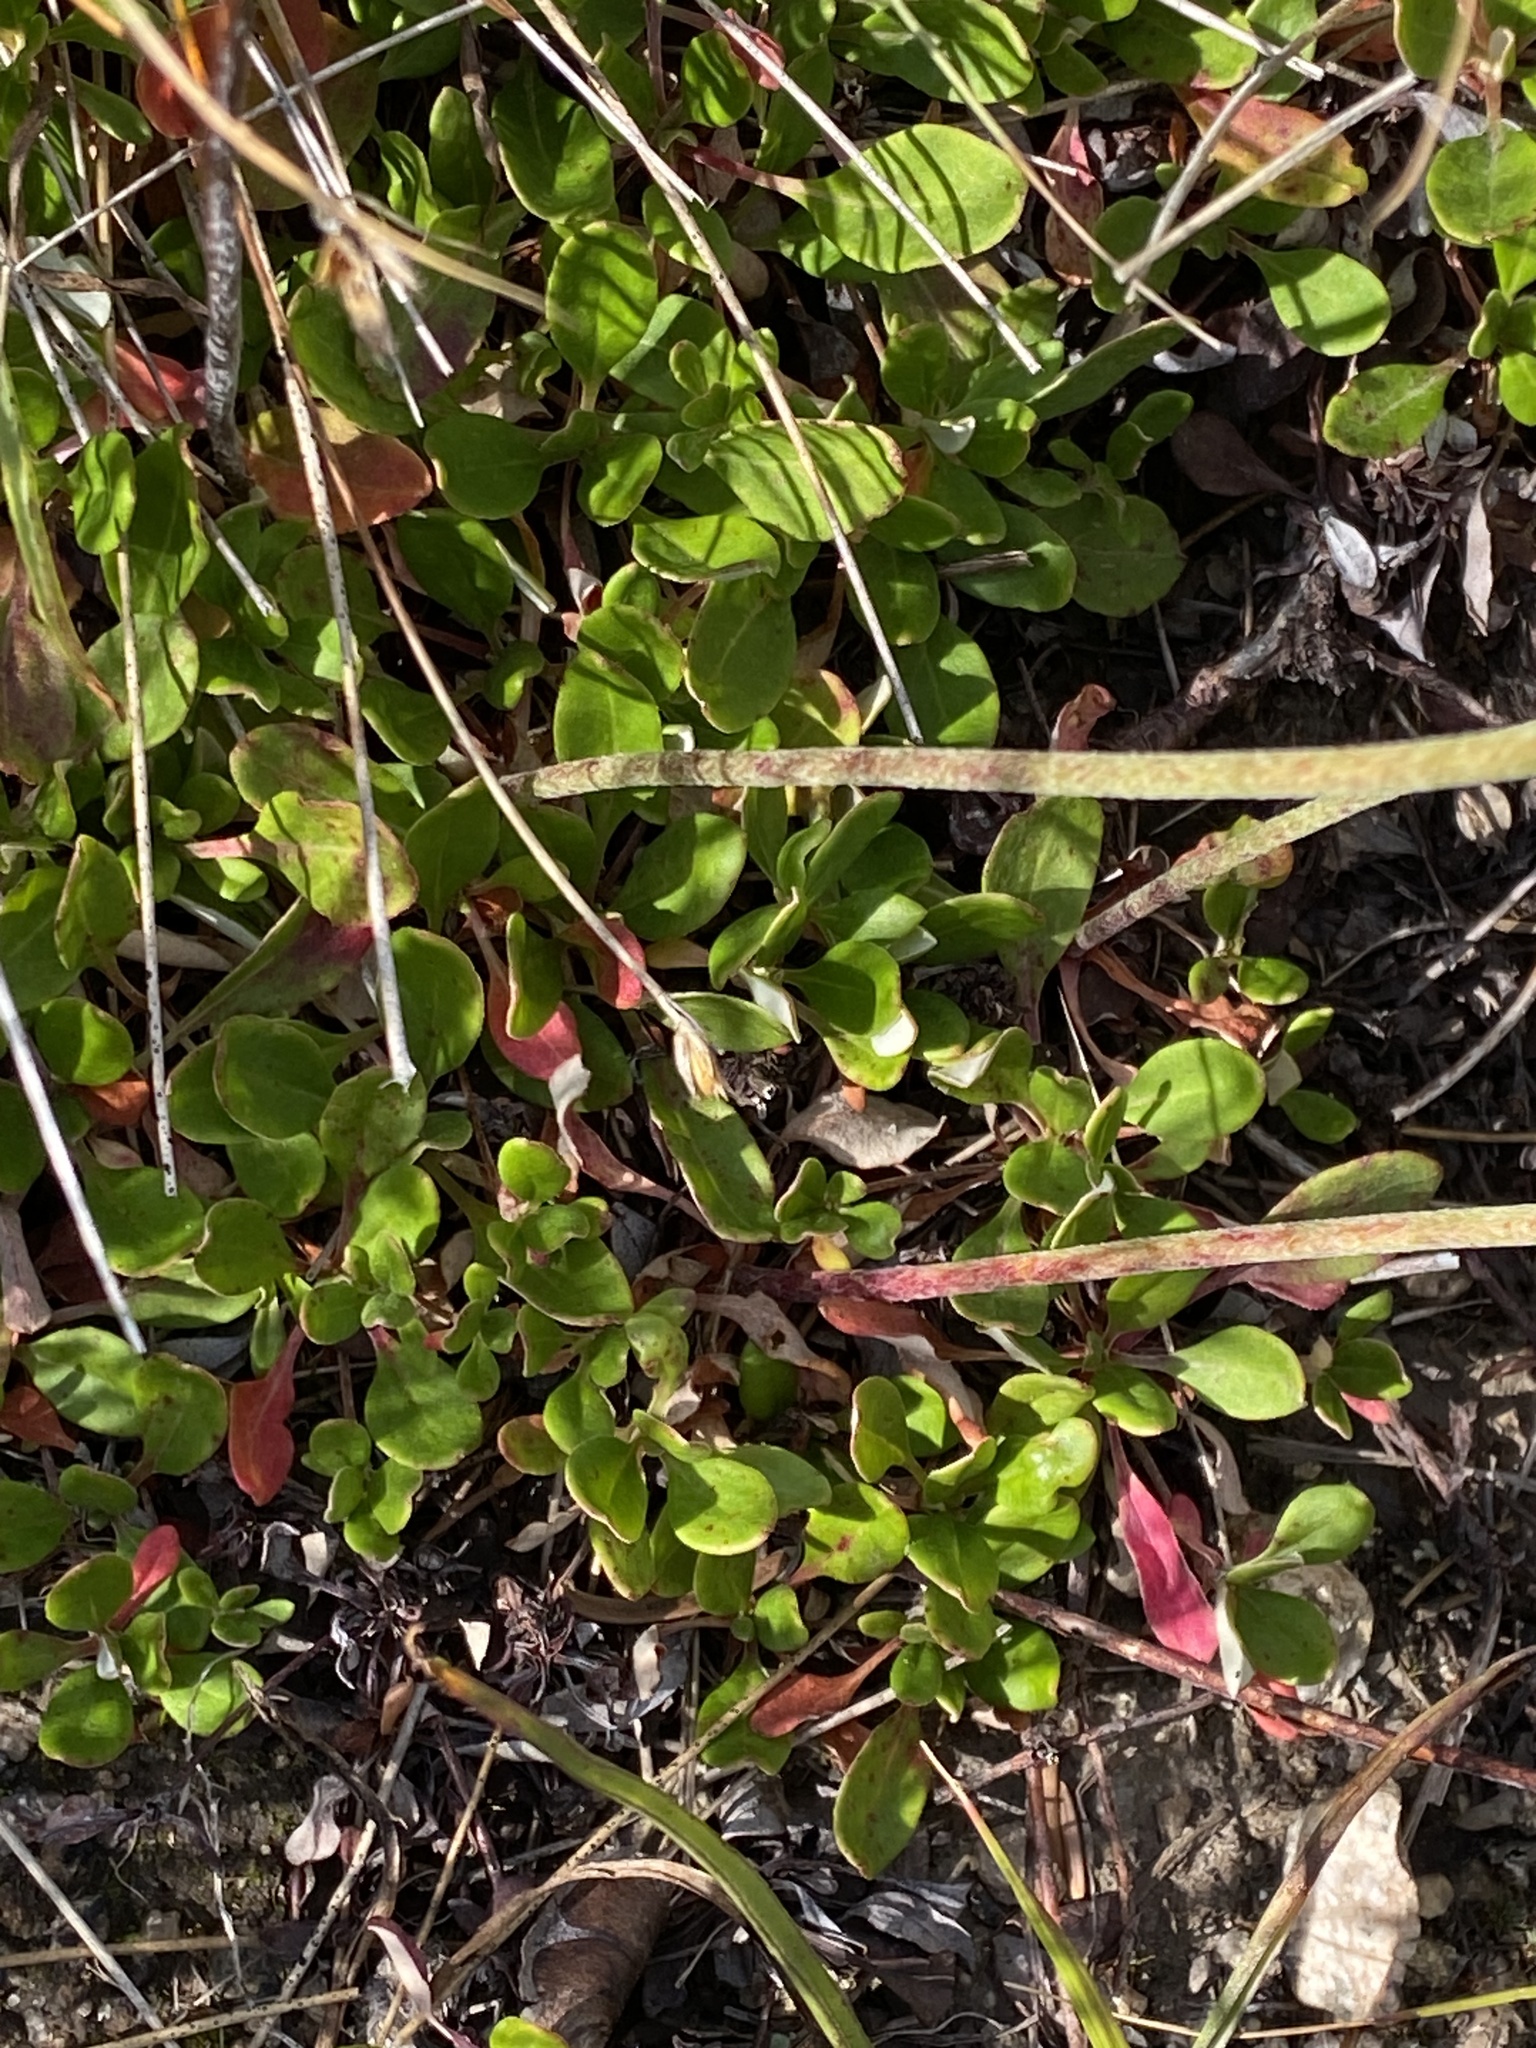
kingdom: Plantae
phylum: Tracheophyta
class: Magnoliopsida
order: Caryophyllales
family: Polygonaceae
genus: Eriogonum
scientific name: Eriogonum umbellatum
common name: Sulfur-buckwheat
